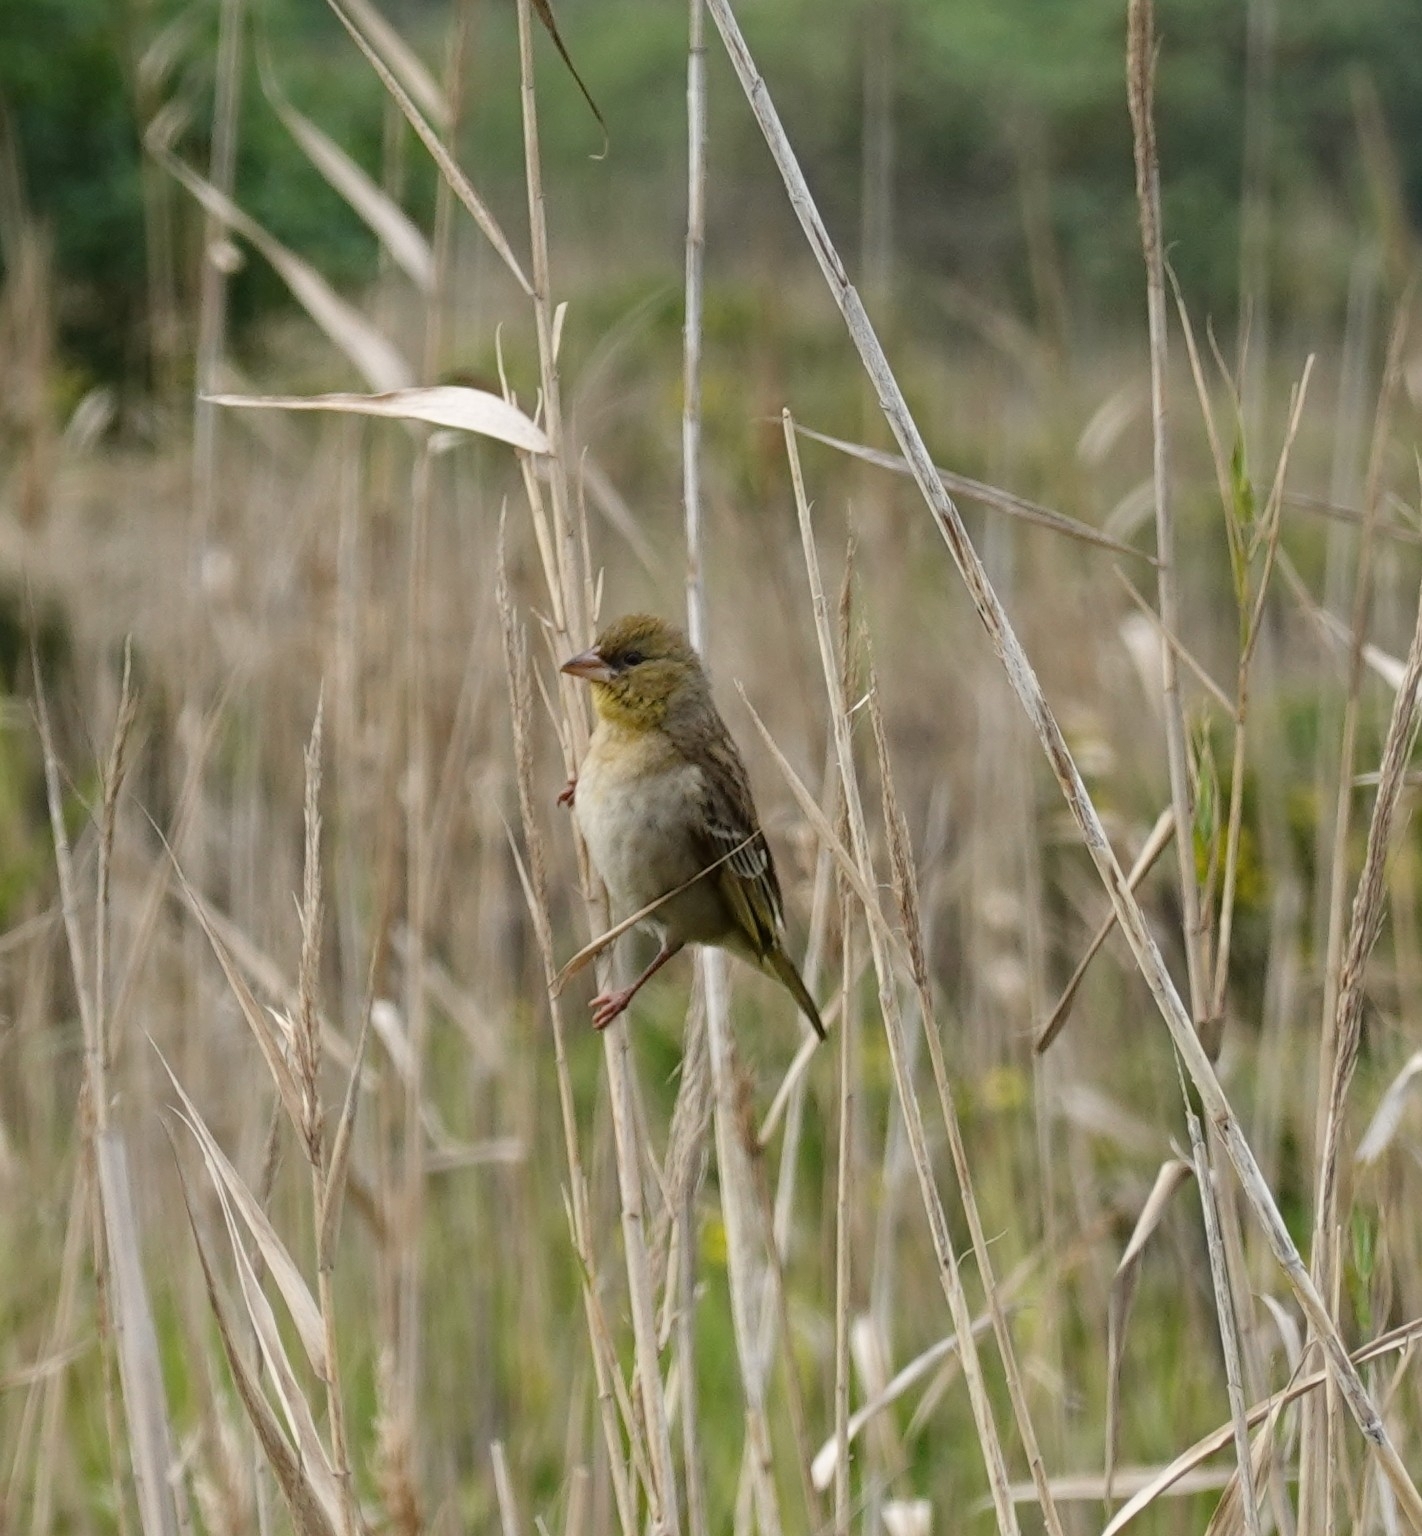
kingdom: Animalia
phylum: Chordata
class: Aves
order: Passeriformes
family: Ploceidae
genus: Ploceus
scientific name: Ploceus velatus
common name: Southern masked weaver
